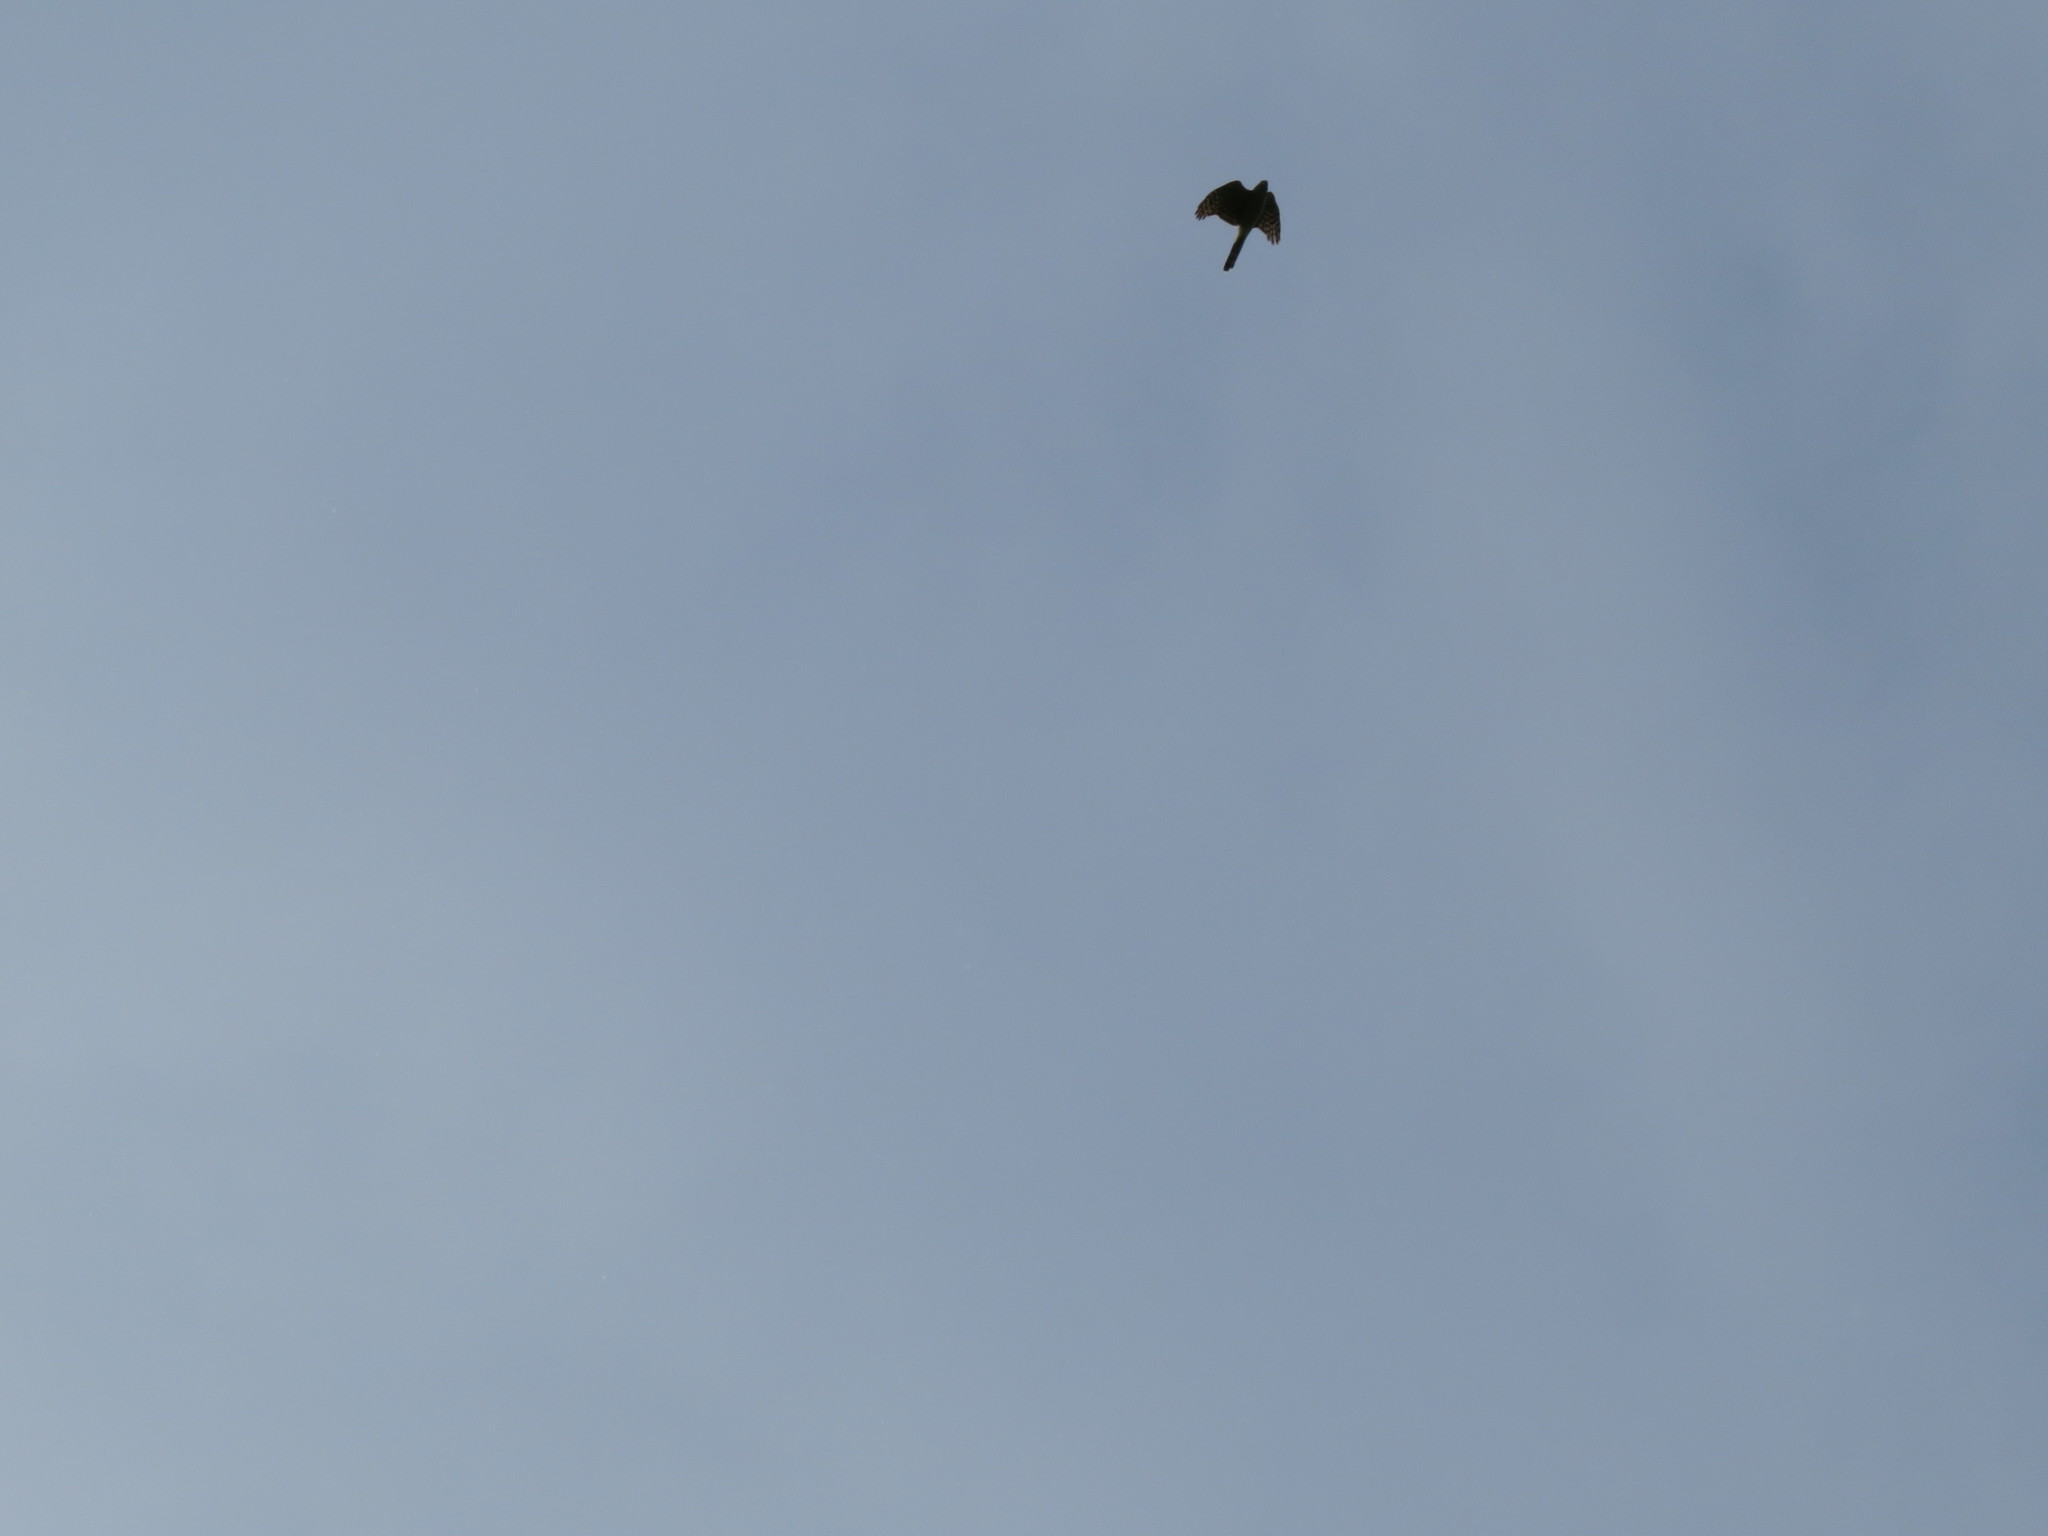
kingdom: Animalia
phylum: Chordata
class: Aves
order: Accipitriformes
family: Accipitridae
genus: Accipiter
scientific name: Accipiter nisus
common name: Eurasian sparrowhawk
